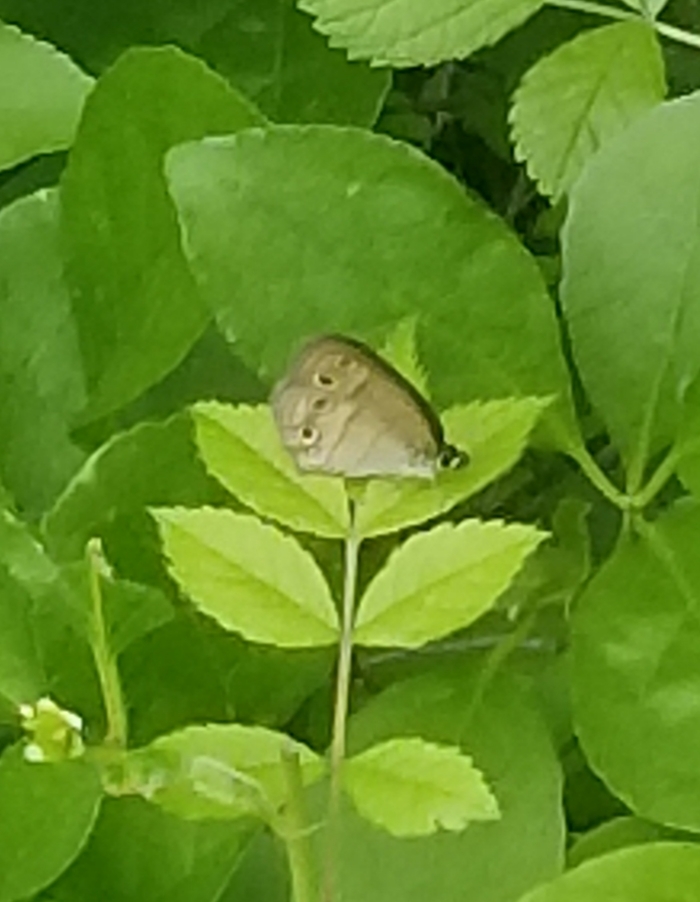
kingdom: Animalia
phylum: Arthropoda
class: Insecta
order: Lepidoptera
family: Nymphalidae
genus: Euptychia
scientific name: Euptychia cymela
